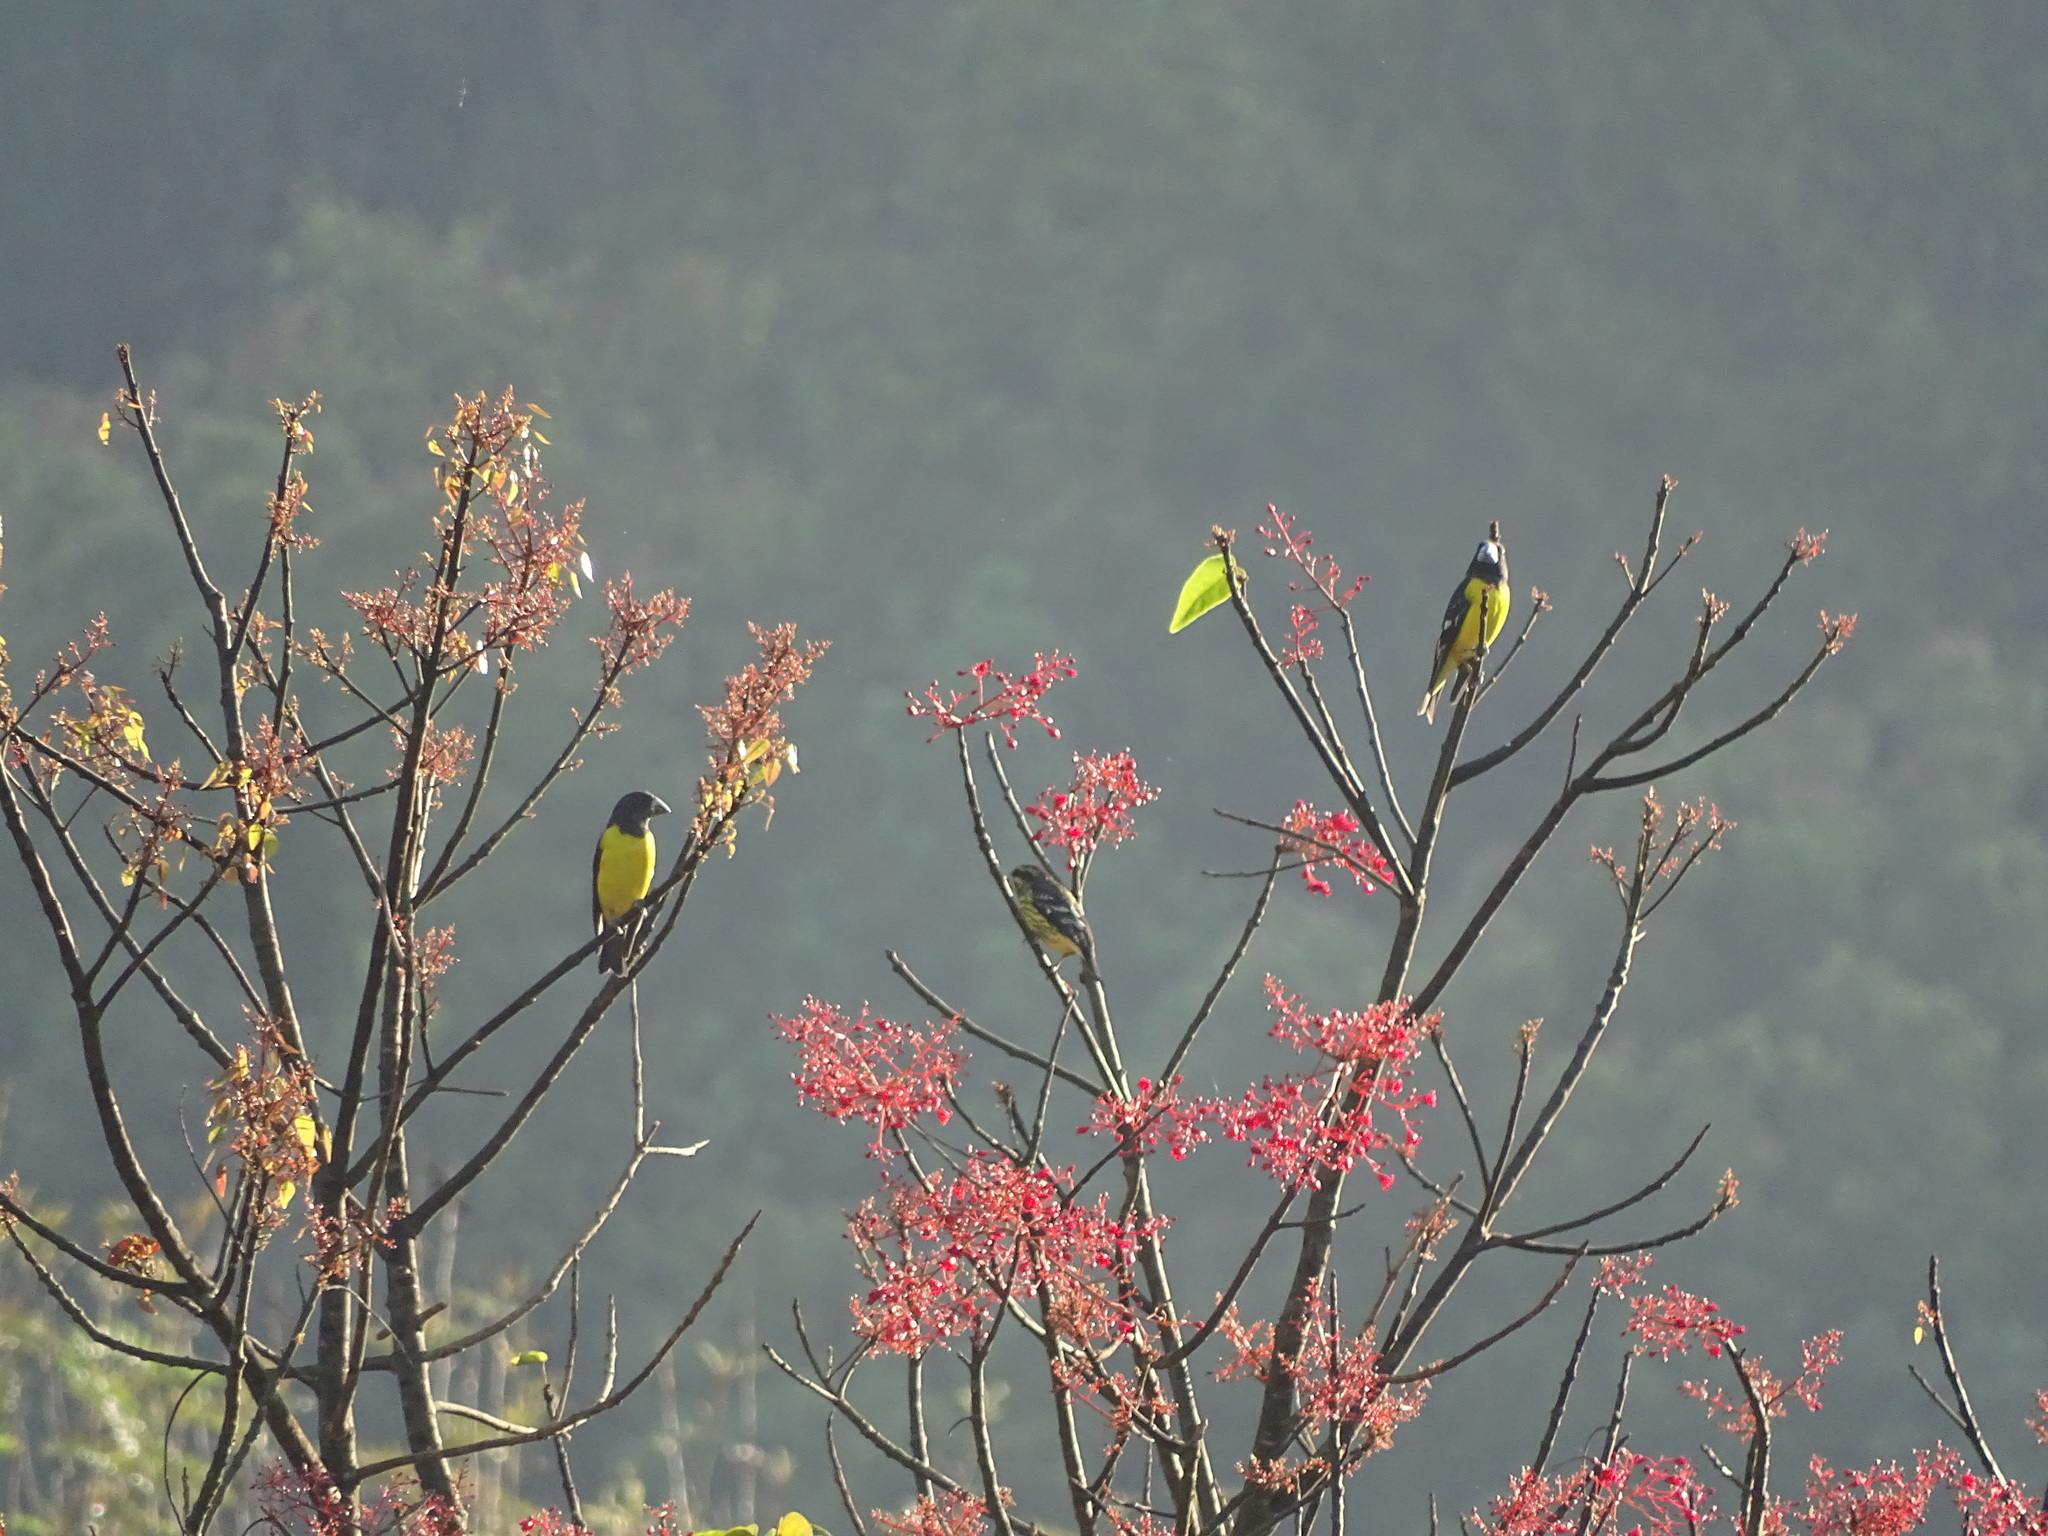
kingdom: Animalia
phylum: Chordata
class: Aves
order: Passeriformes
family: Fringillidae
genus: Mycerobas
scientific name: Mycerobas melanozanthos
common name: Spot-winged grosbeak
